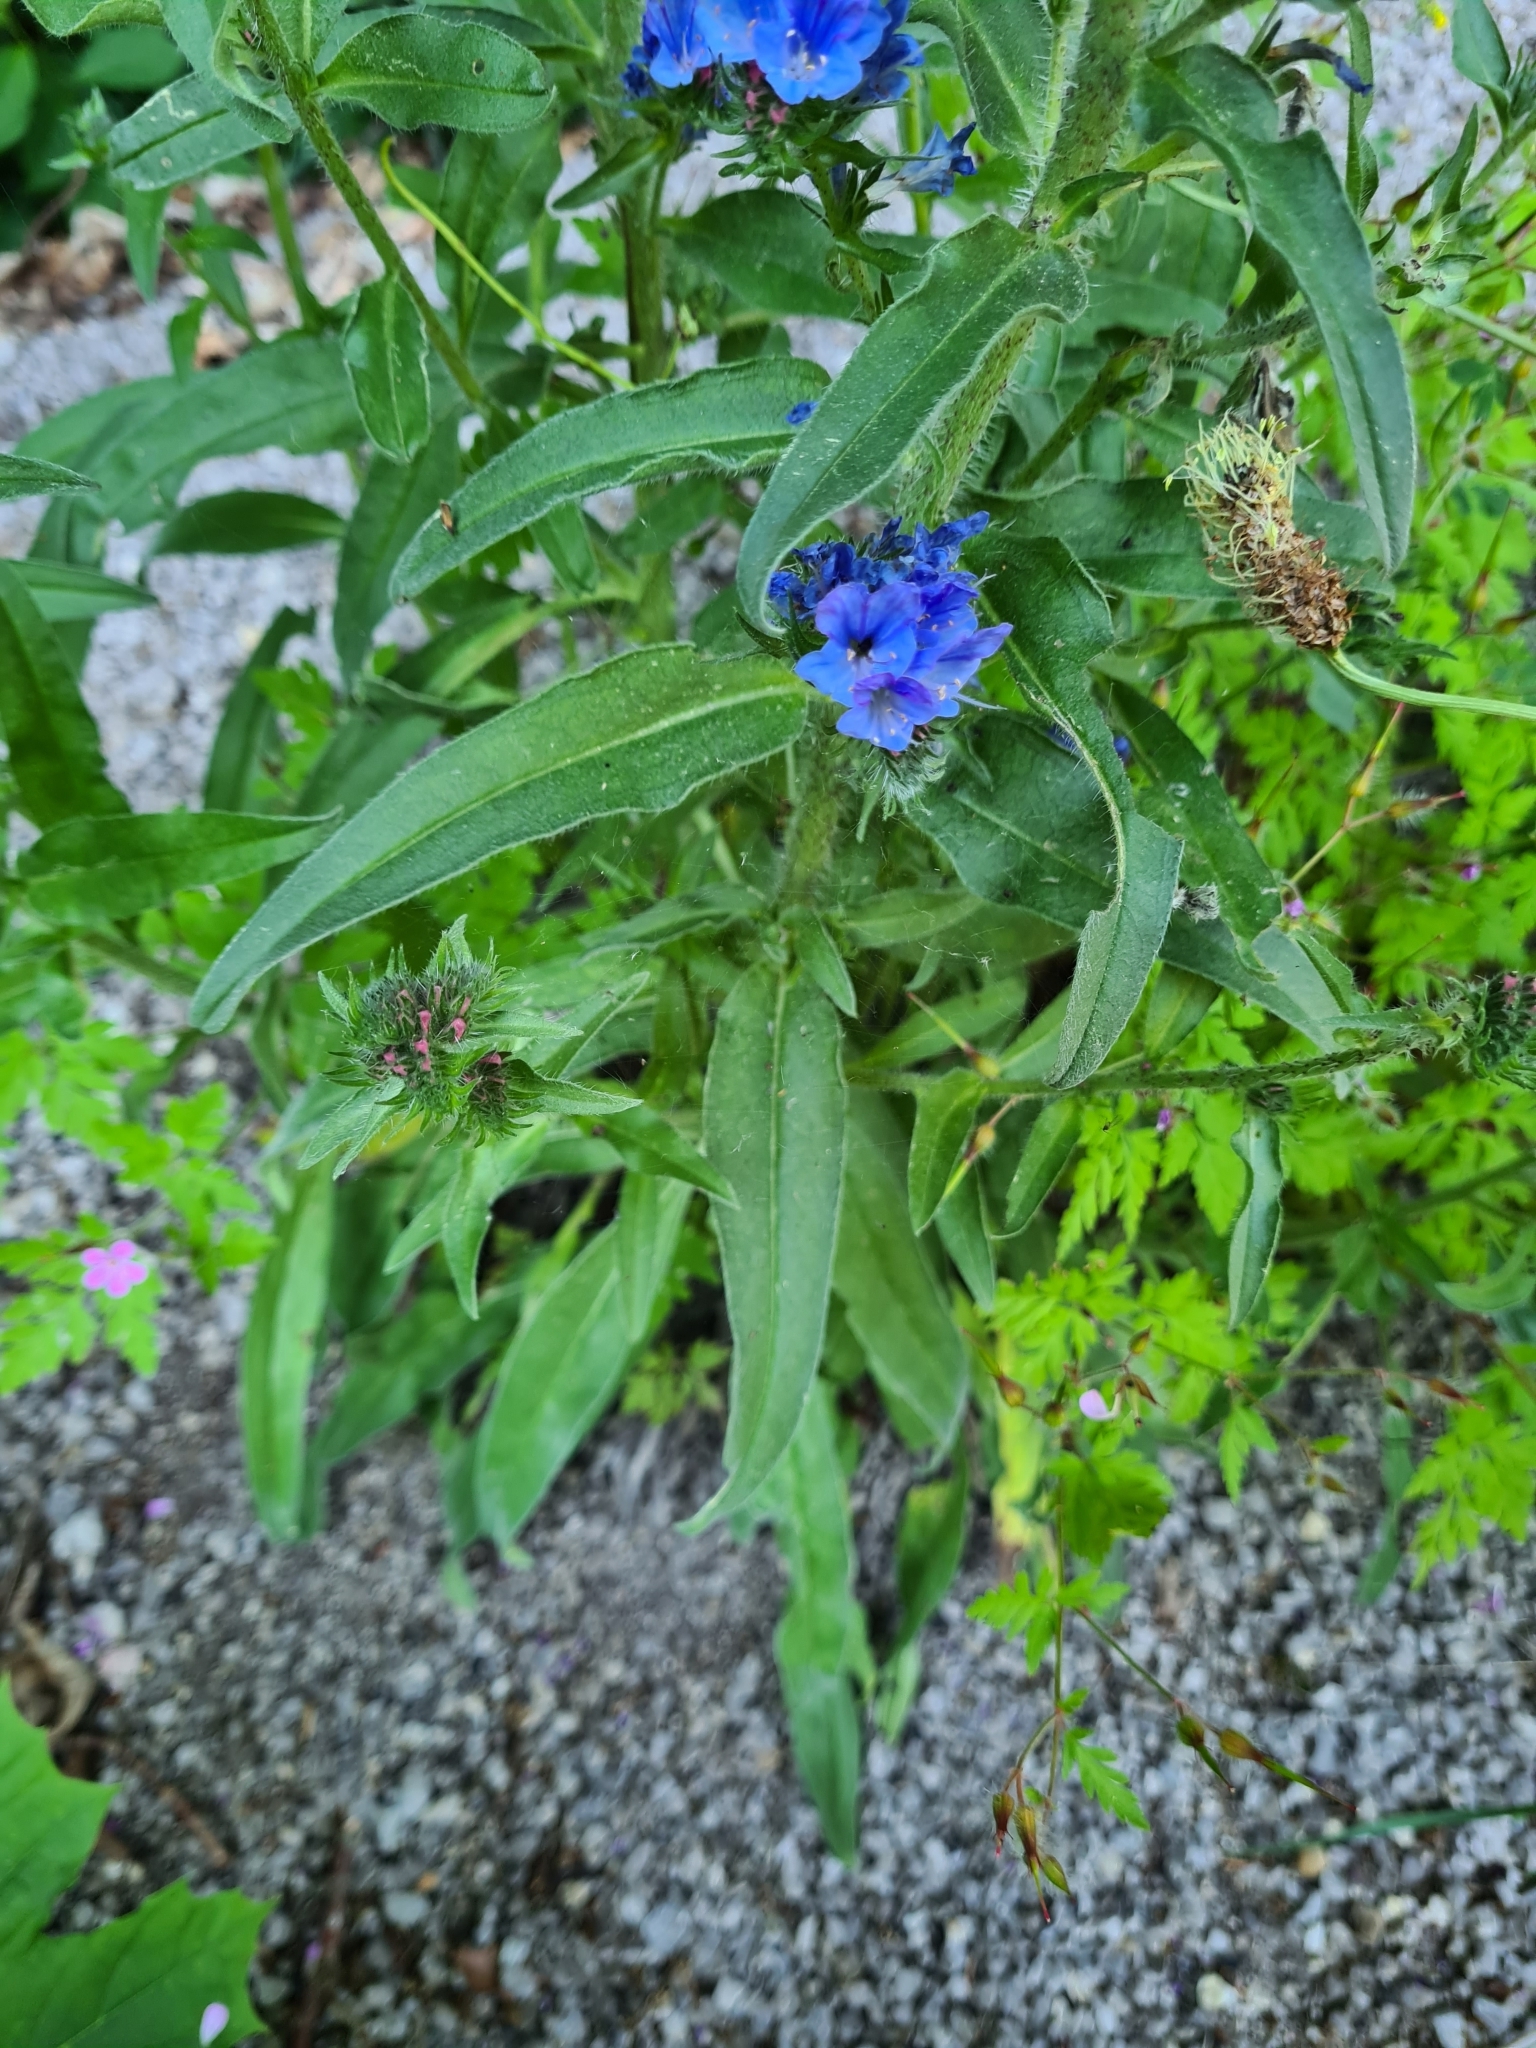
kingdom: Plantae
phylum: Tracheophyta
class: Magnoliopsida
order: Boraginales
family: Boraginaceae
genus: Echium
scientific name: Echium vulgare
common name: Common viper's bugloss
